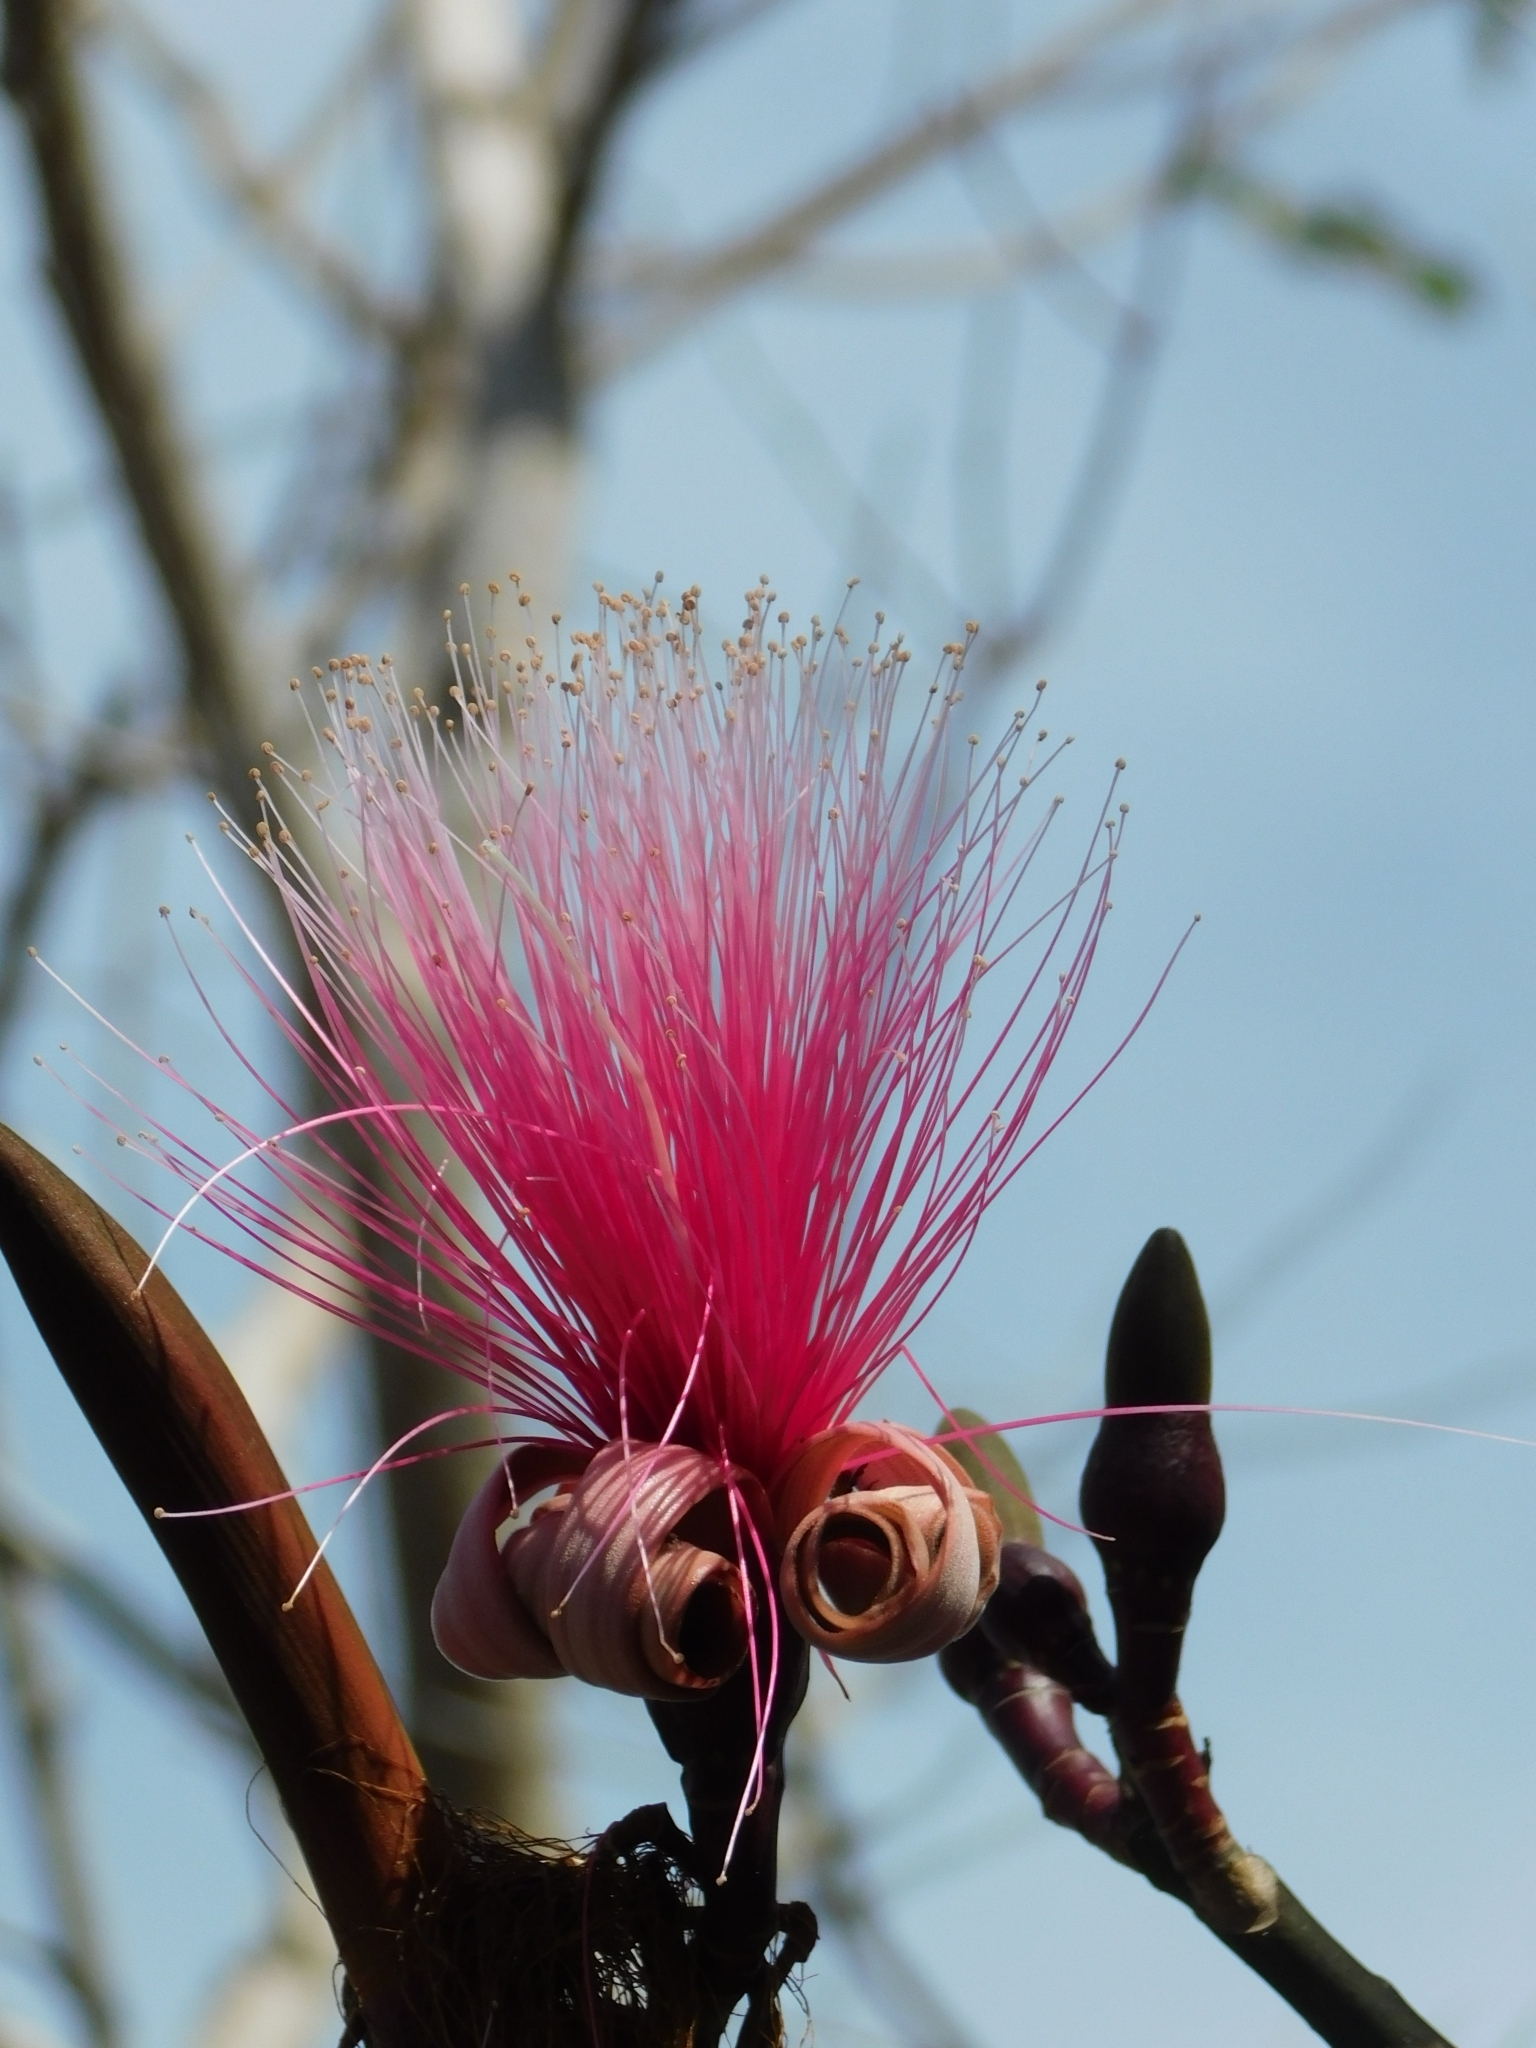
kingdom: Plantae
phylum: Tracheophyta
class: Magnoliopsida
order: Malvales
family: Malvaceae
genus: Pseudobombax
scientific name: Pseudobombax ellipticum
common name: Shaving-brush-tree
